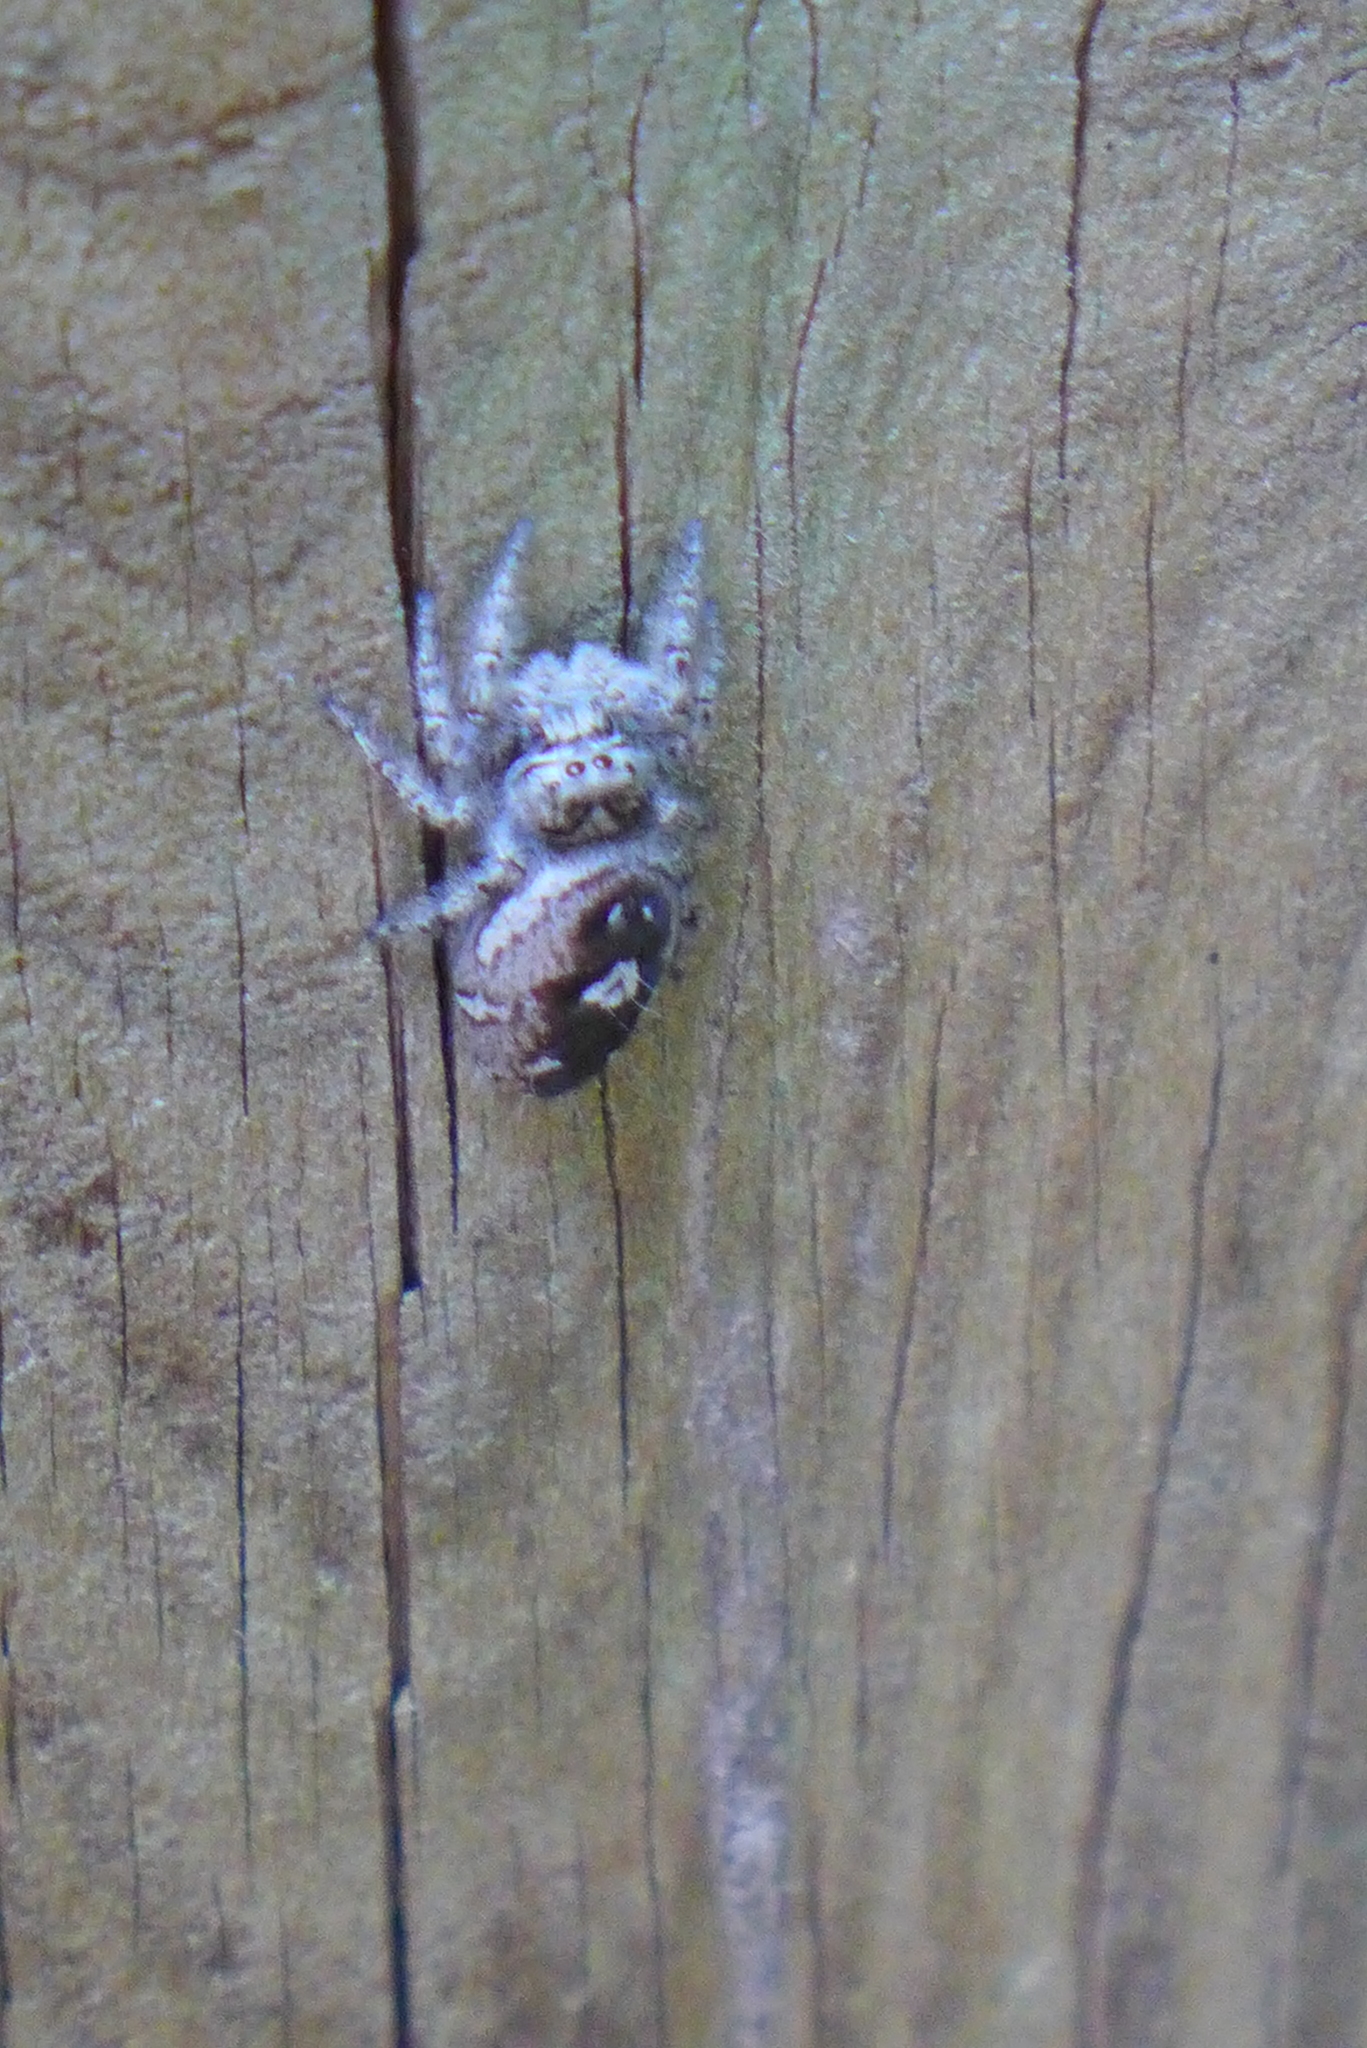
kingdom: Animalia
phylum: Arthropoda
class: Arachnida
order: Araneae
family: Salticidae
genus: Phidippus
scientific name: Phidippus putnami
